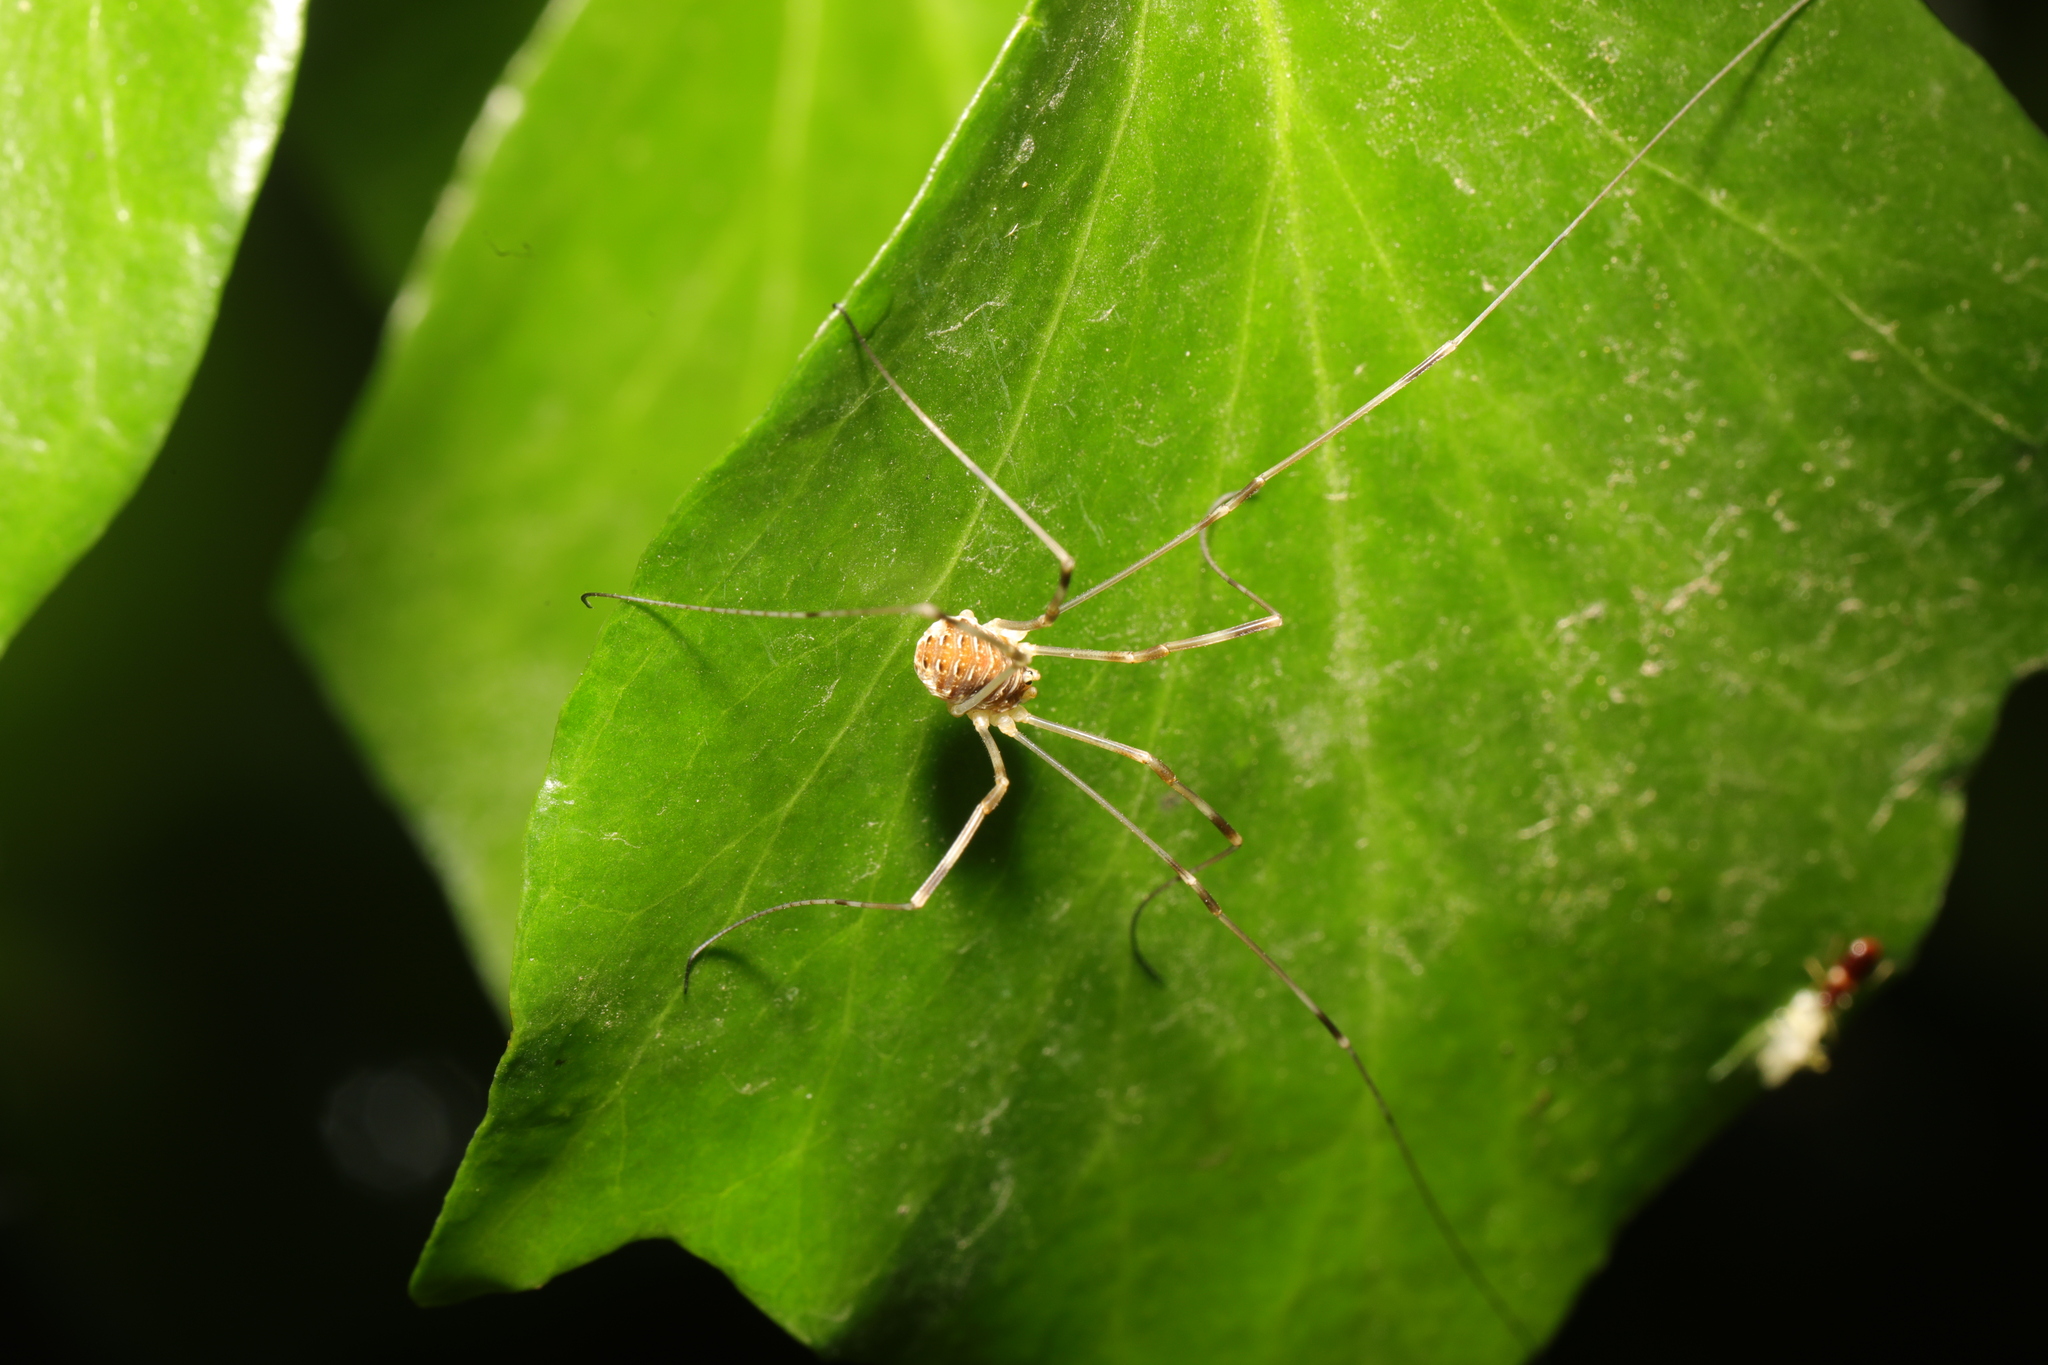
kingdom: Animalia
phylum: Arthropoda
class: Arachnida
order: Opiliones
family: Phalangiidae
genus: Opilio
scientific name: Opilio canestrinii
